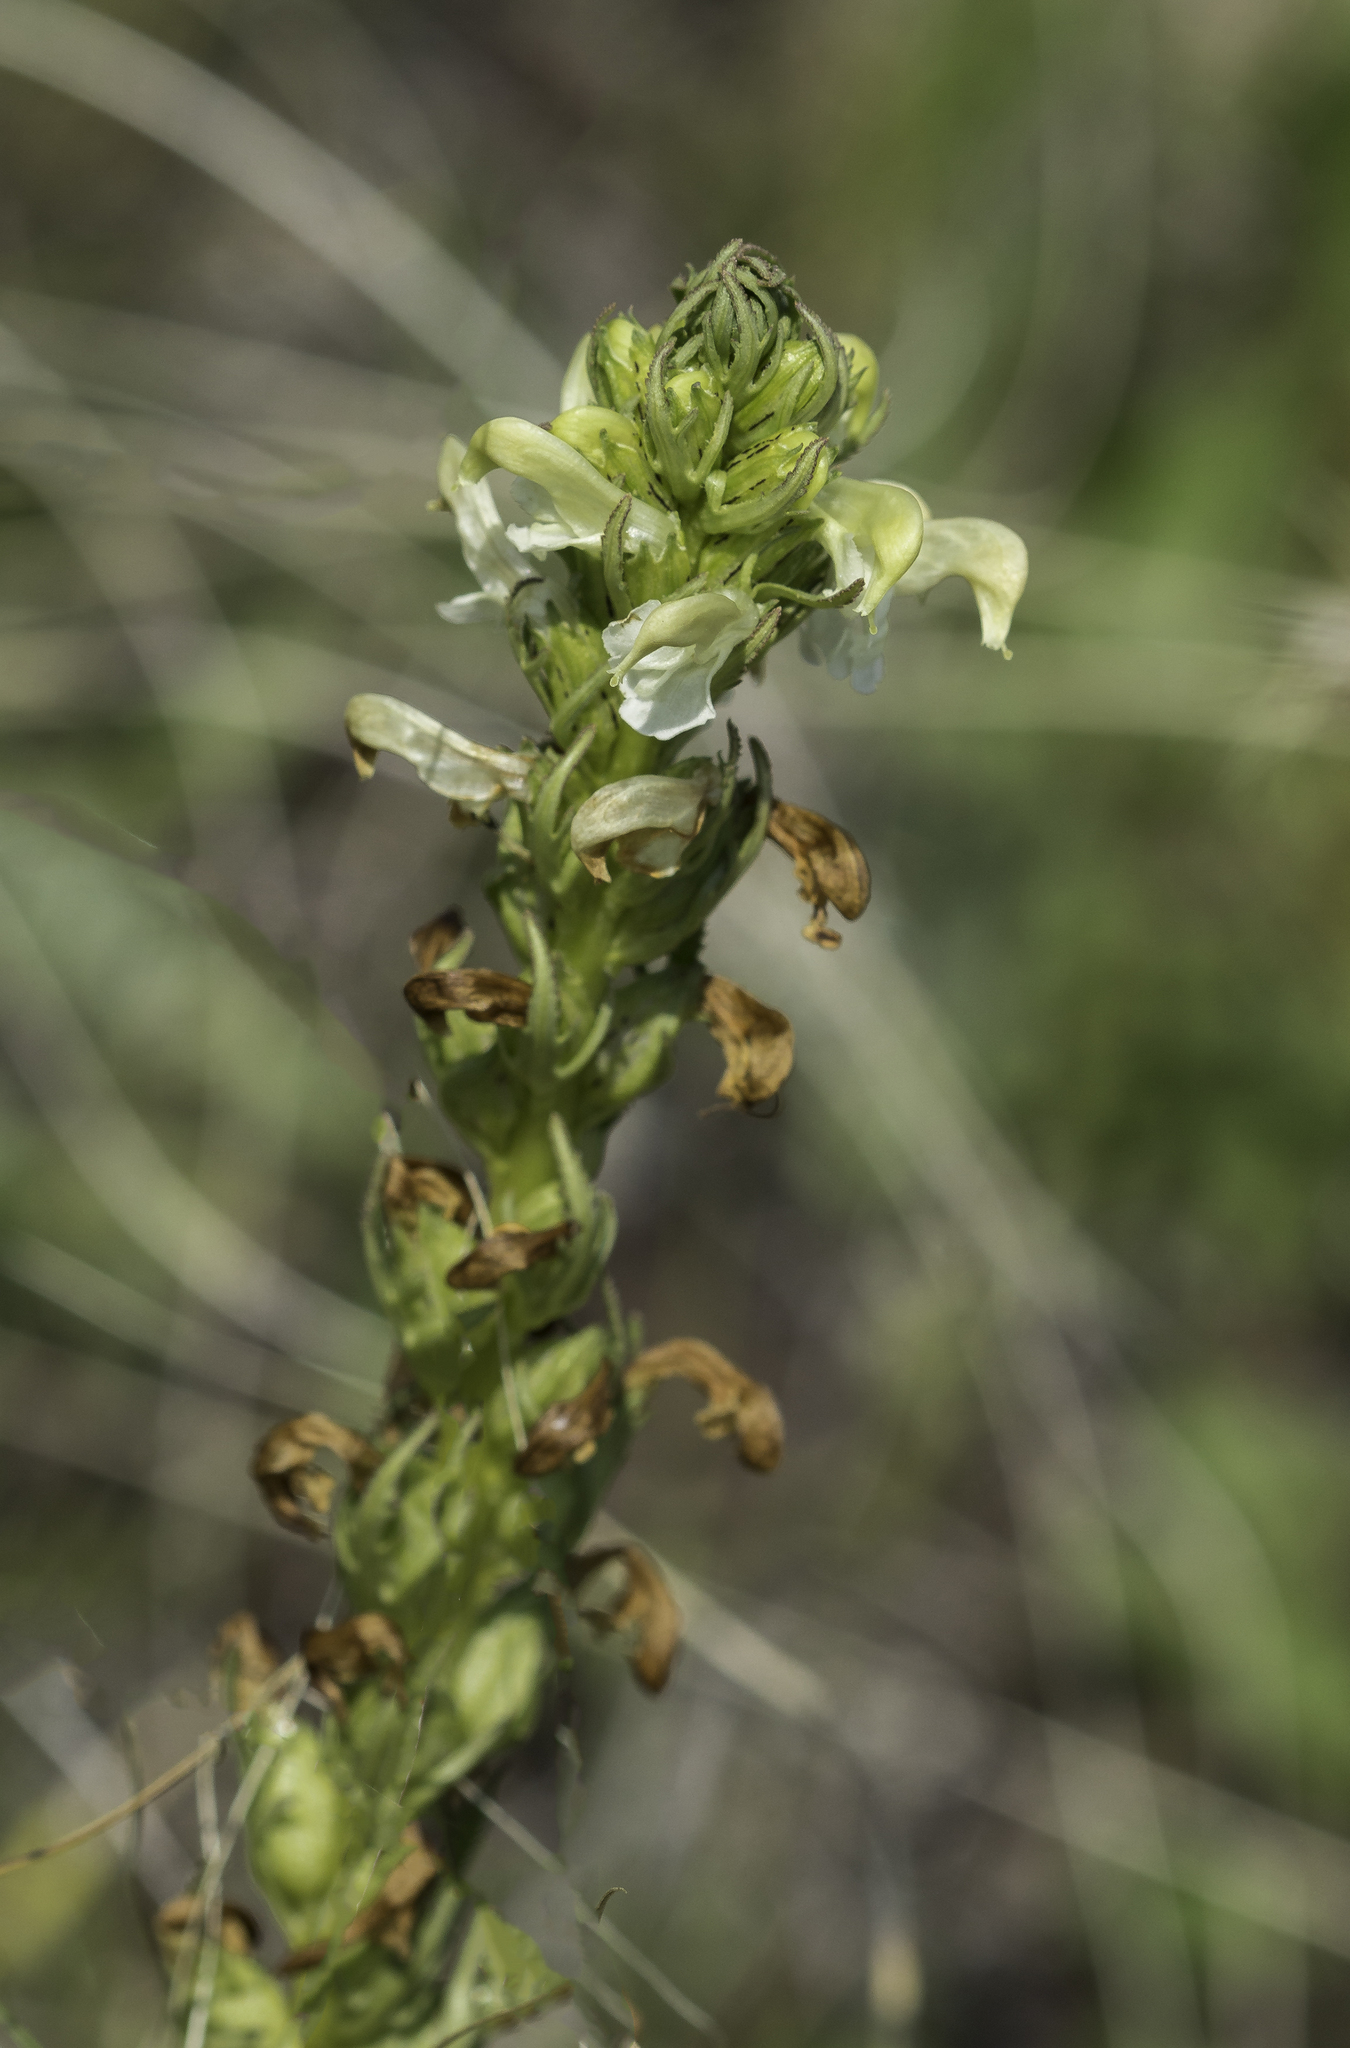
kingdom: Plantae
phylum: Tracheophyta
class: Magnoliopsida
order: Lamiales
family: Orobanchaceae
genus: Pedicularis
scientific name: Pedicularis parryi
